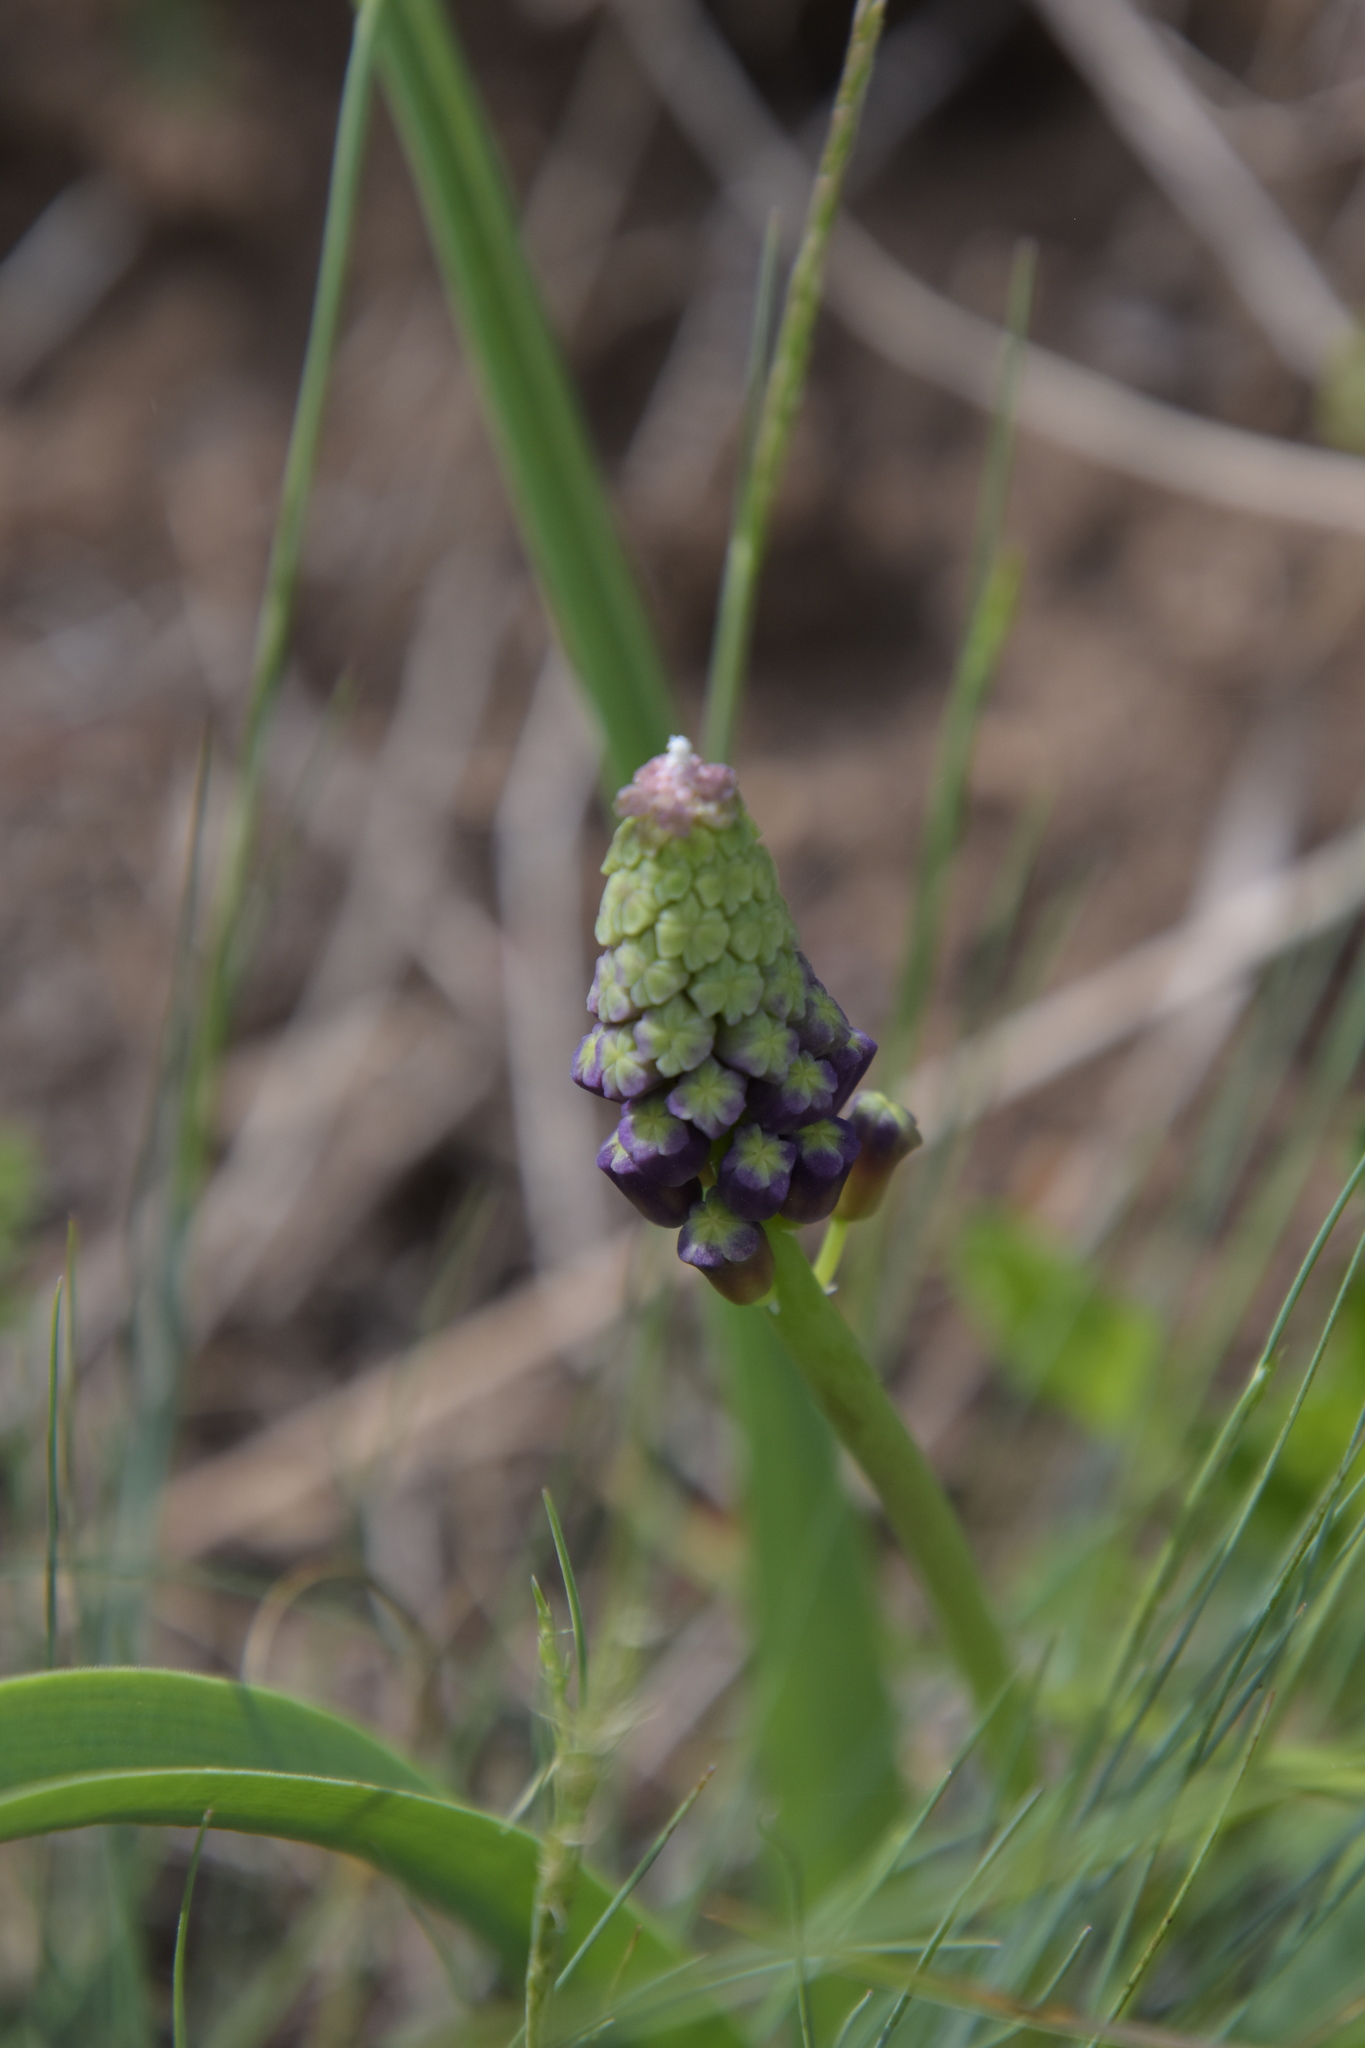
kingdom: Plantae
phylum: Tracheophyta
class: Liliopsida
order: Asparagales
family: Asparagaceae
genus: Muscari
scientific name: Muscari comosum
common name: Tassel hyacinth
